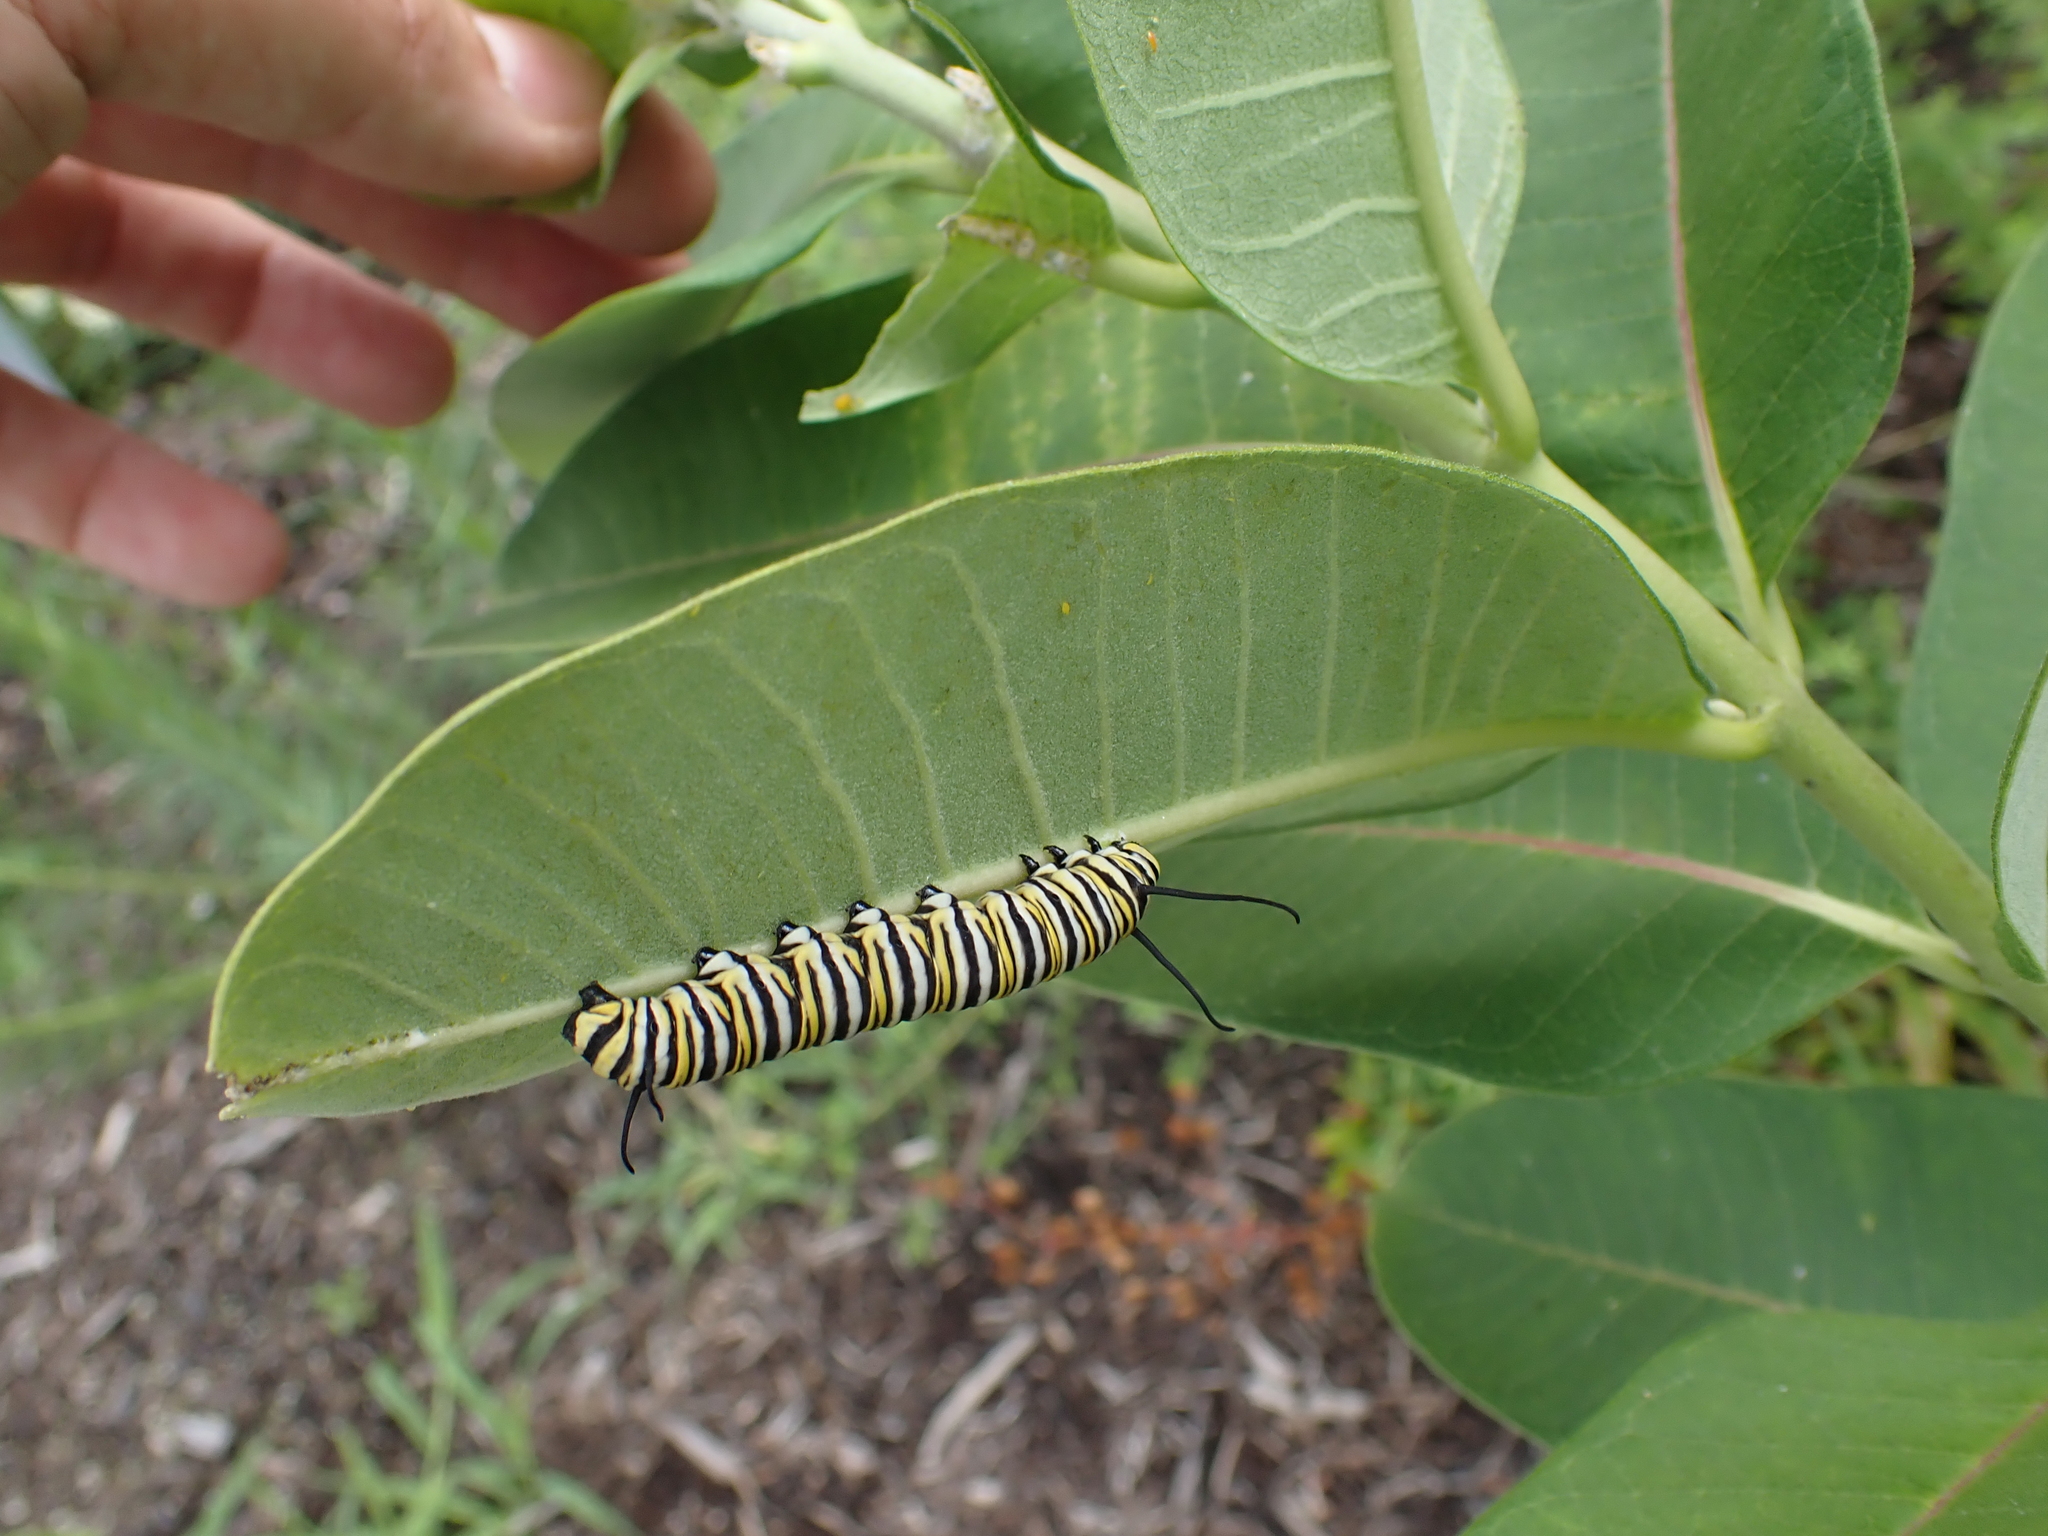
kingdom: Animalia
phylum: Arthropoda
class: Insecta
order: Lepidoptera
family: Nymphalidae
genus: Danaus
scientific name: Danaus plexippus
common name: Monarch
